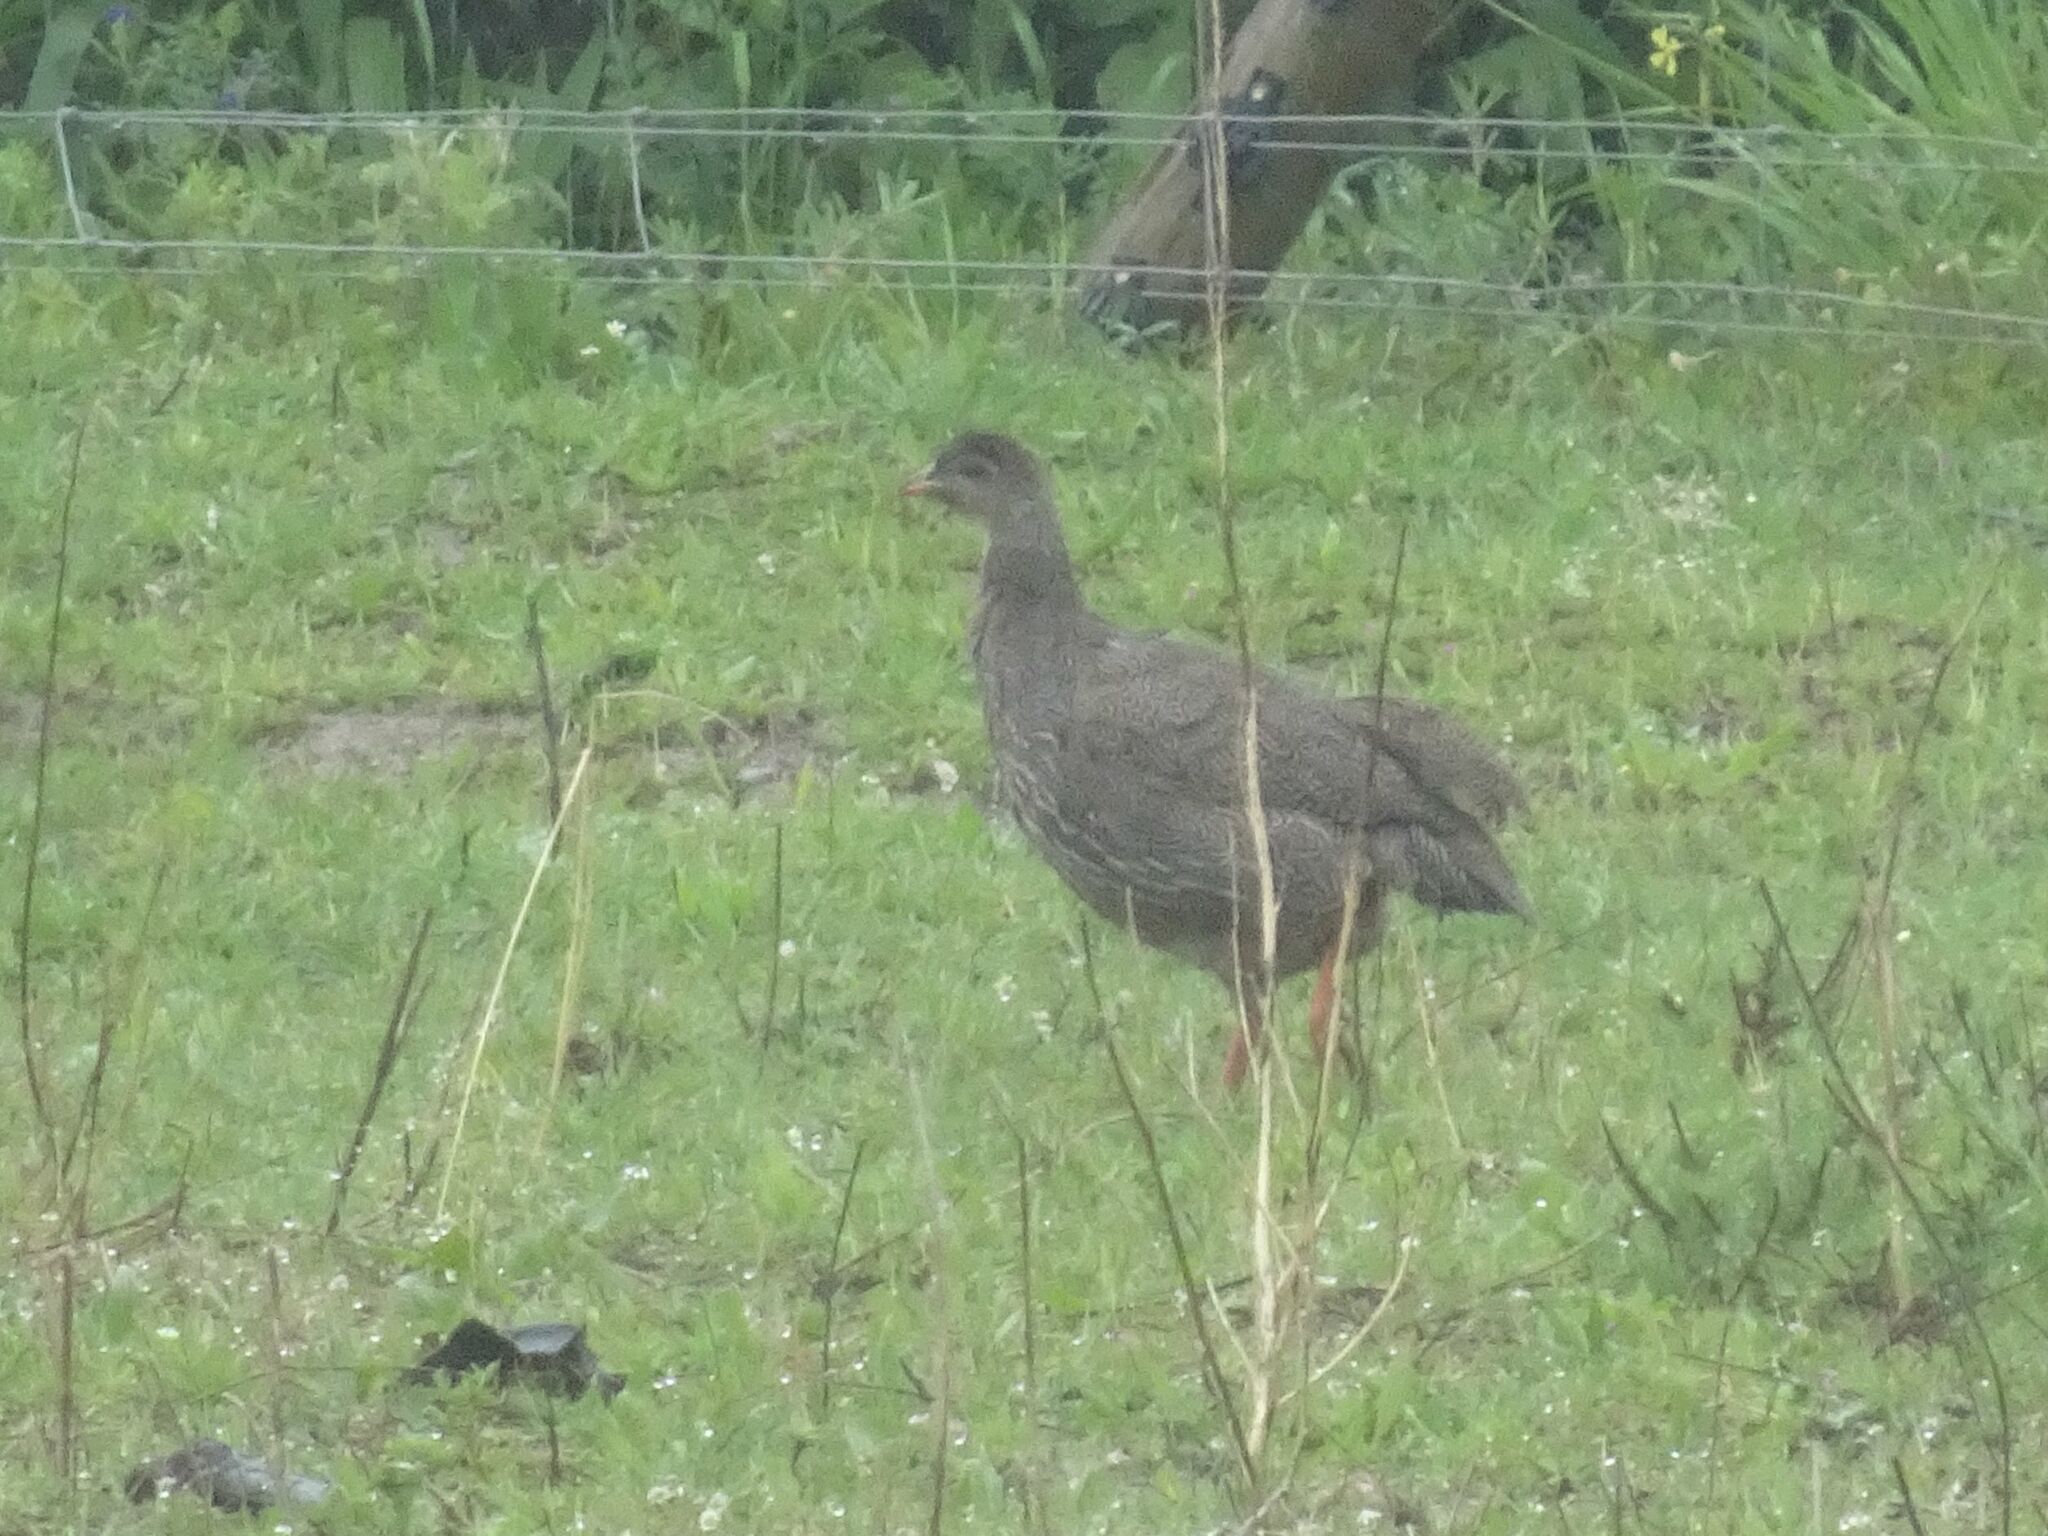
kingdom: Animalia
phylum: Chordata
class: Aves
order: Galliformes
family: Phasianidae
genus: Pternistis
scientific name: Pternistis capensis
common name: Cape spurfowl
